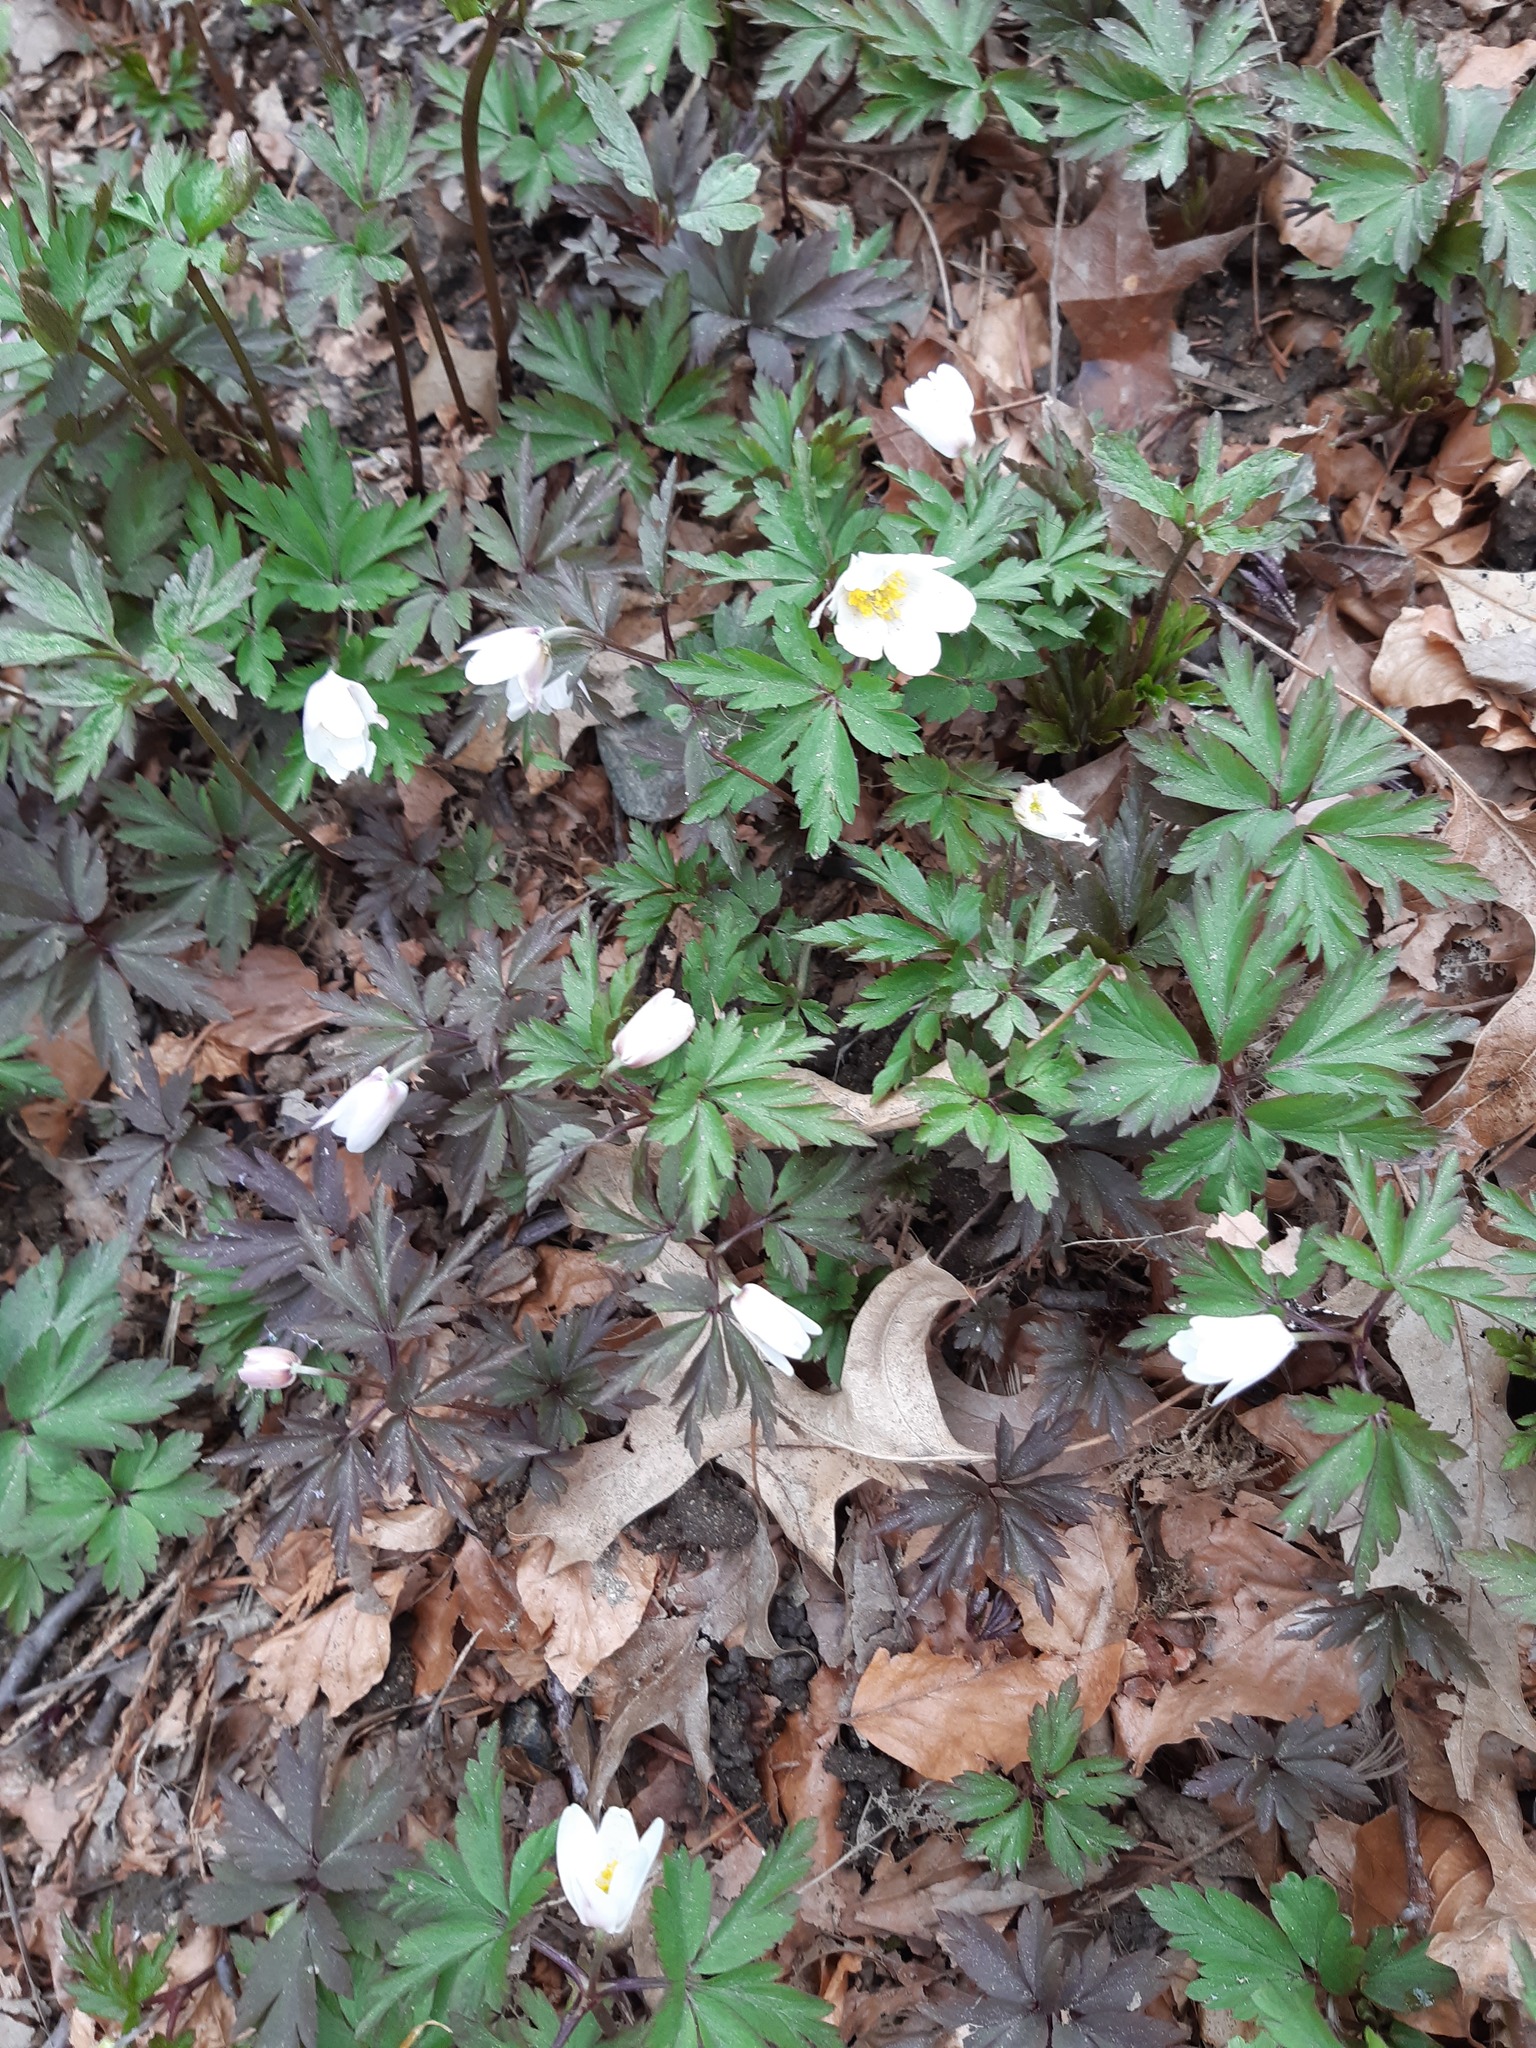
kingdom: Plantae
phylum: Tracheophyta
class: Magnoliopsida
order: Ranunculales
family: Ranunculaceae
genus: Anemone
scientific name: Anemone nemorosa
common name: Wood anemone
